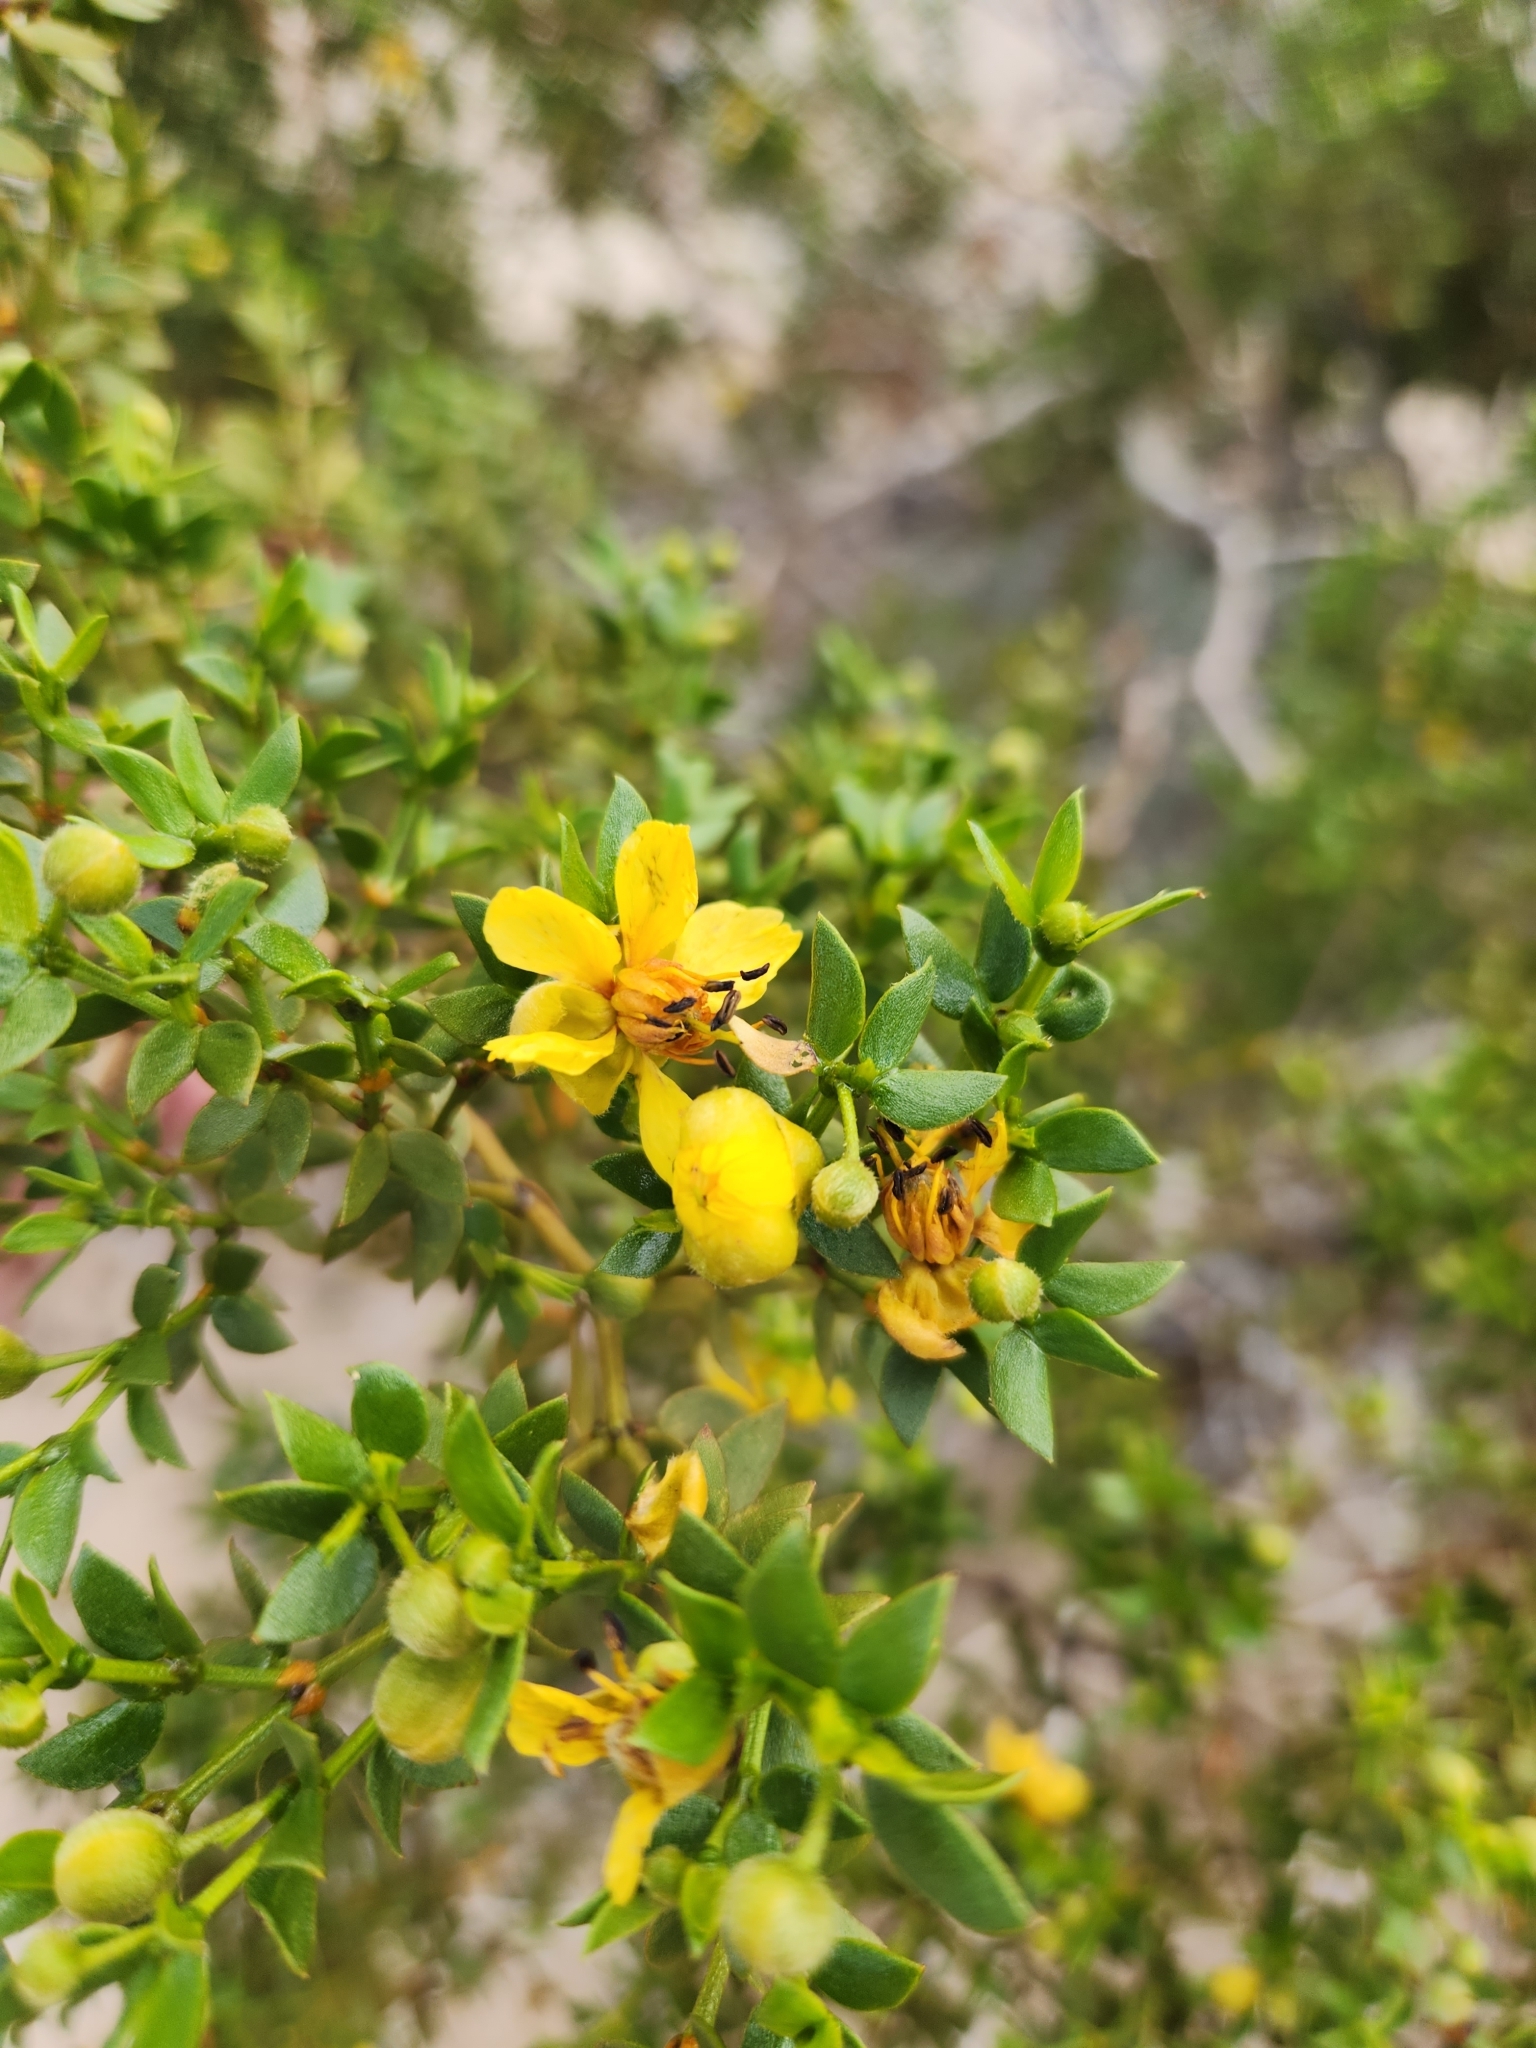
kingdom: Plantae
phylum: Tracheophyta
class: Magnoliopsida
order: Zygophyllales
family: Zygophyllaceae
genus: Larrea
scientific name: Larrea tridentata
